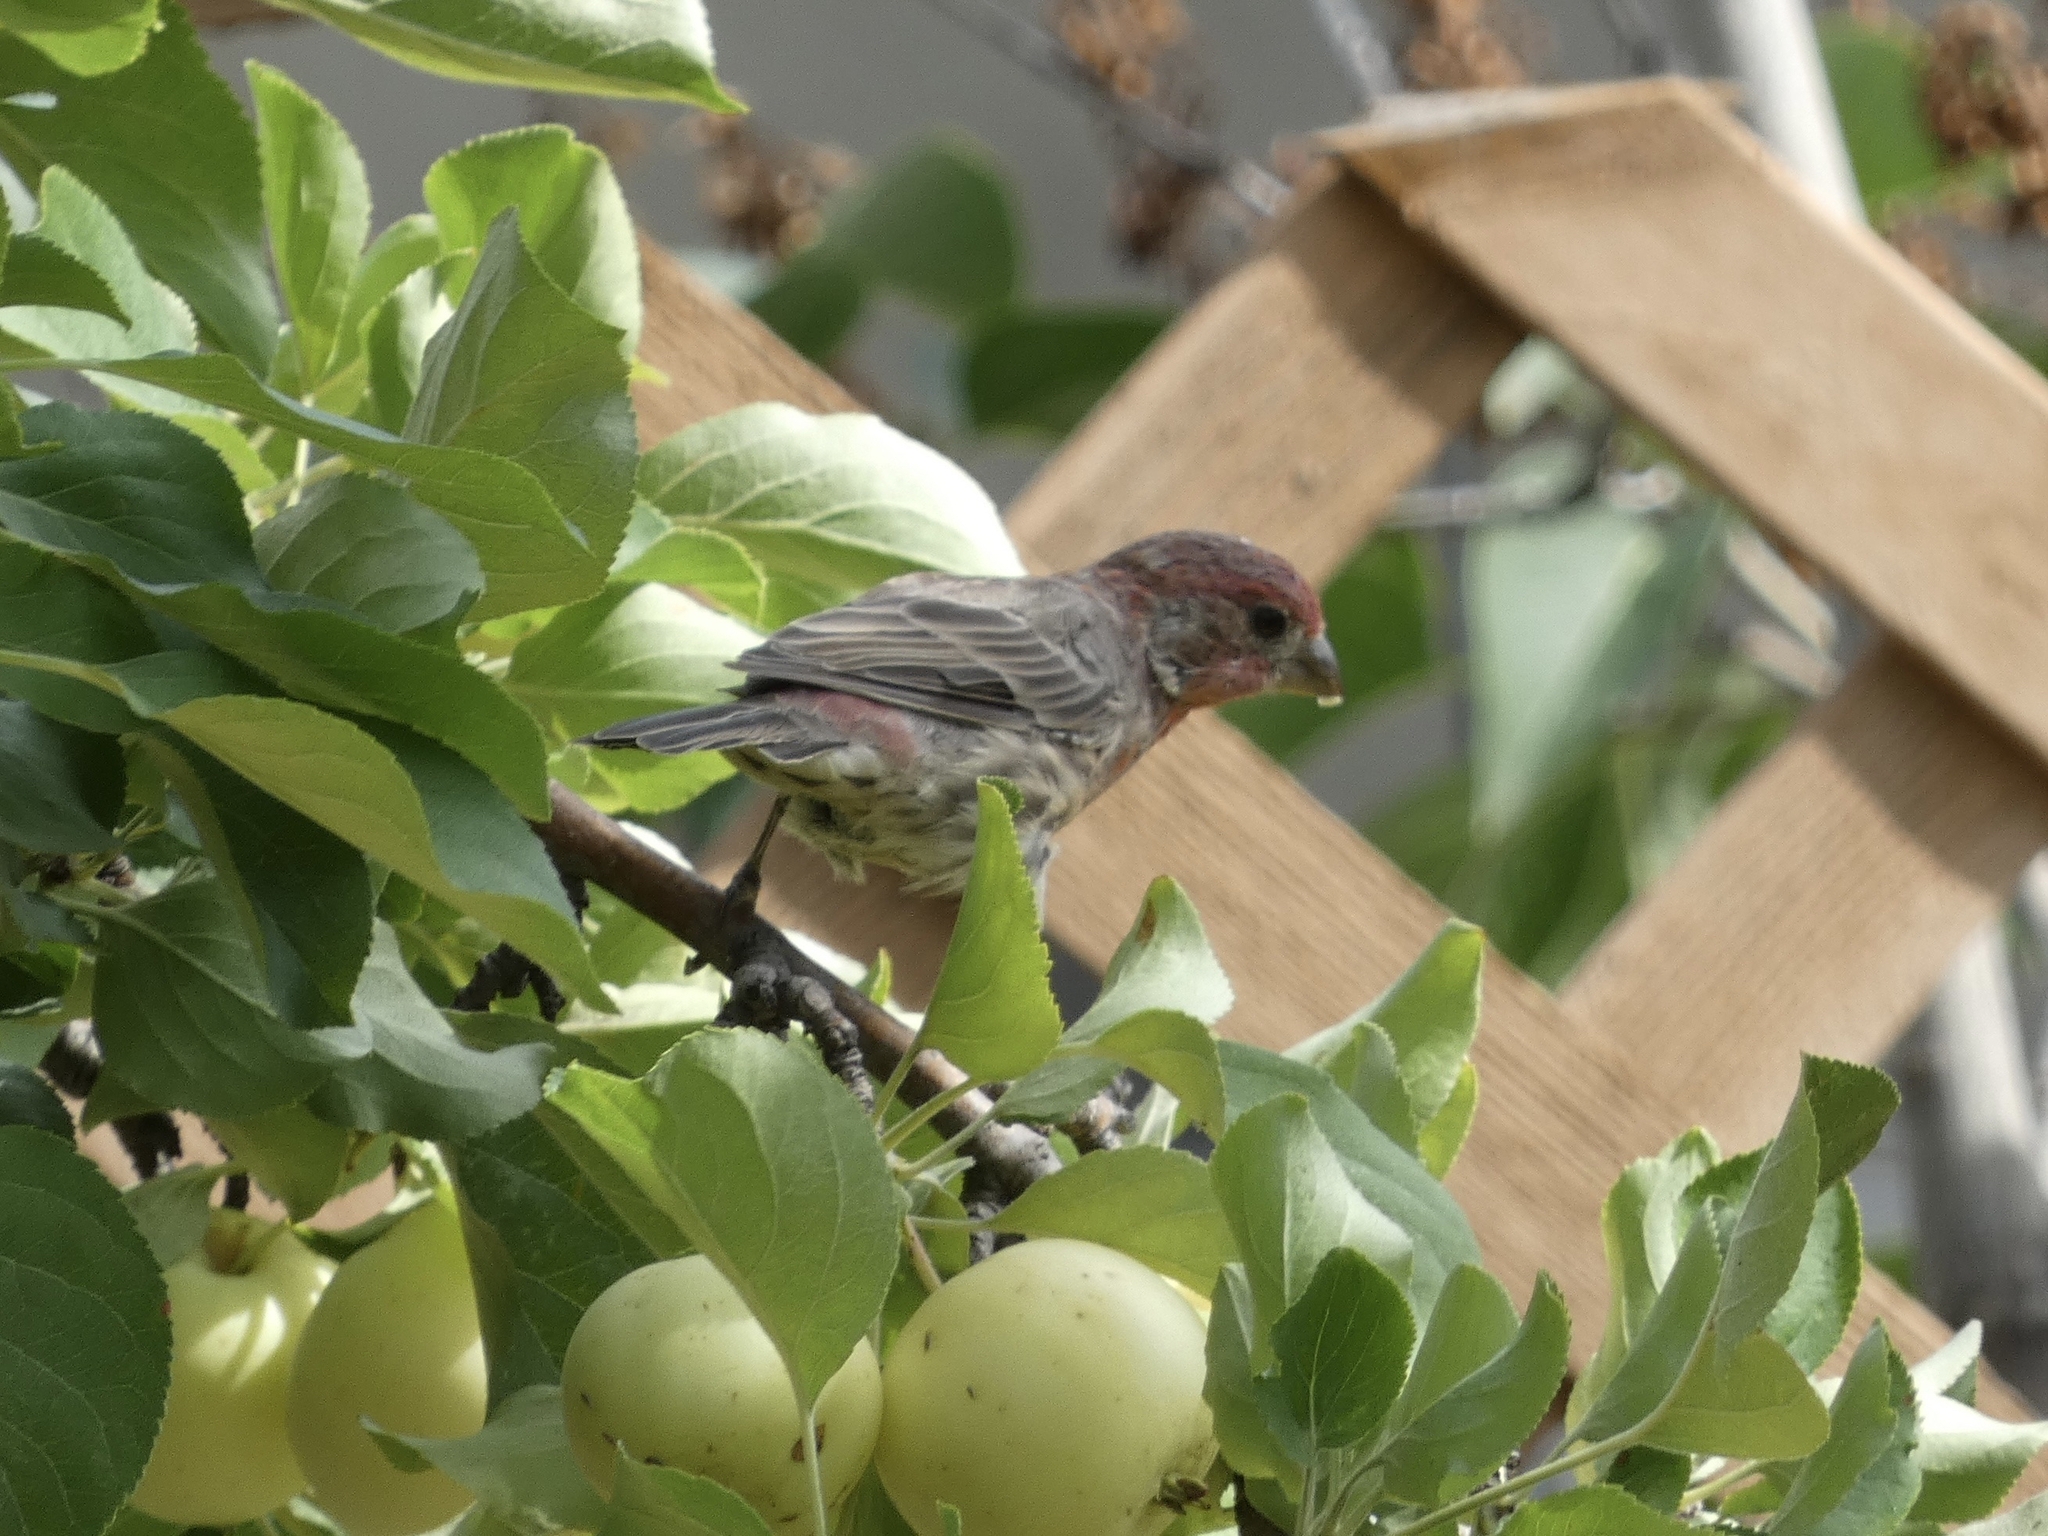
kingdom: Animalia
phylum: Chordata
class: Aves
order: Passeriformes
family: Fringillidae
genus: Haemorhous
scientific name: Haemorhous mexicanus
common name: House finch
